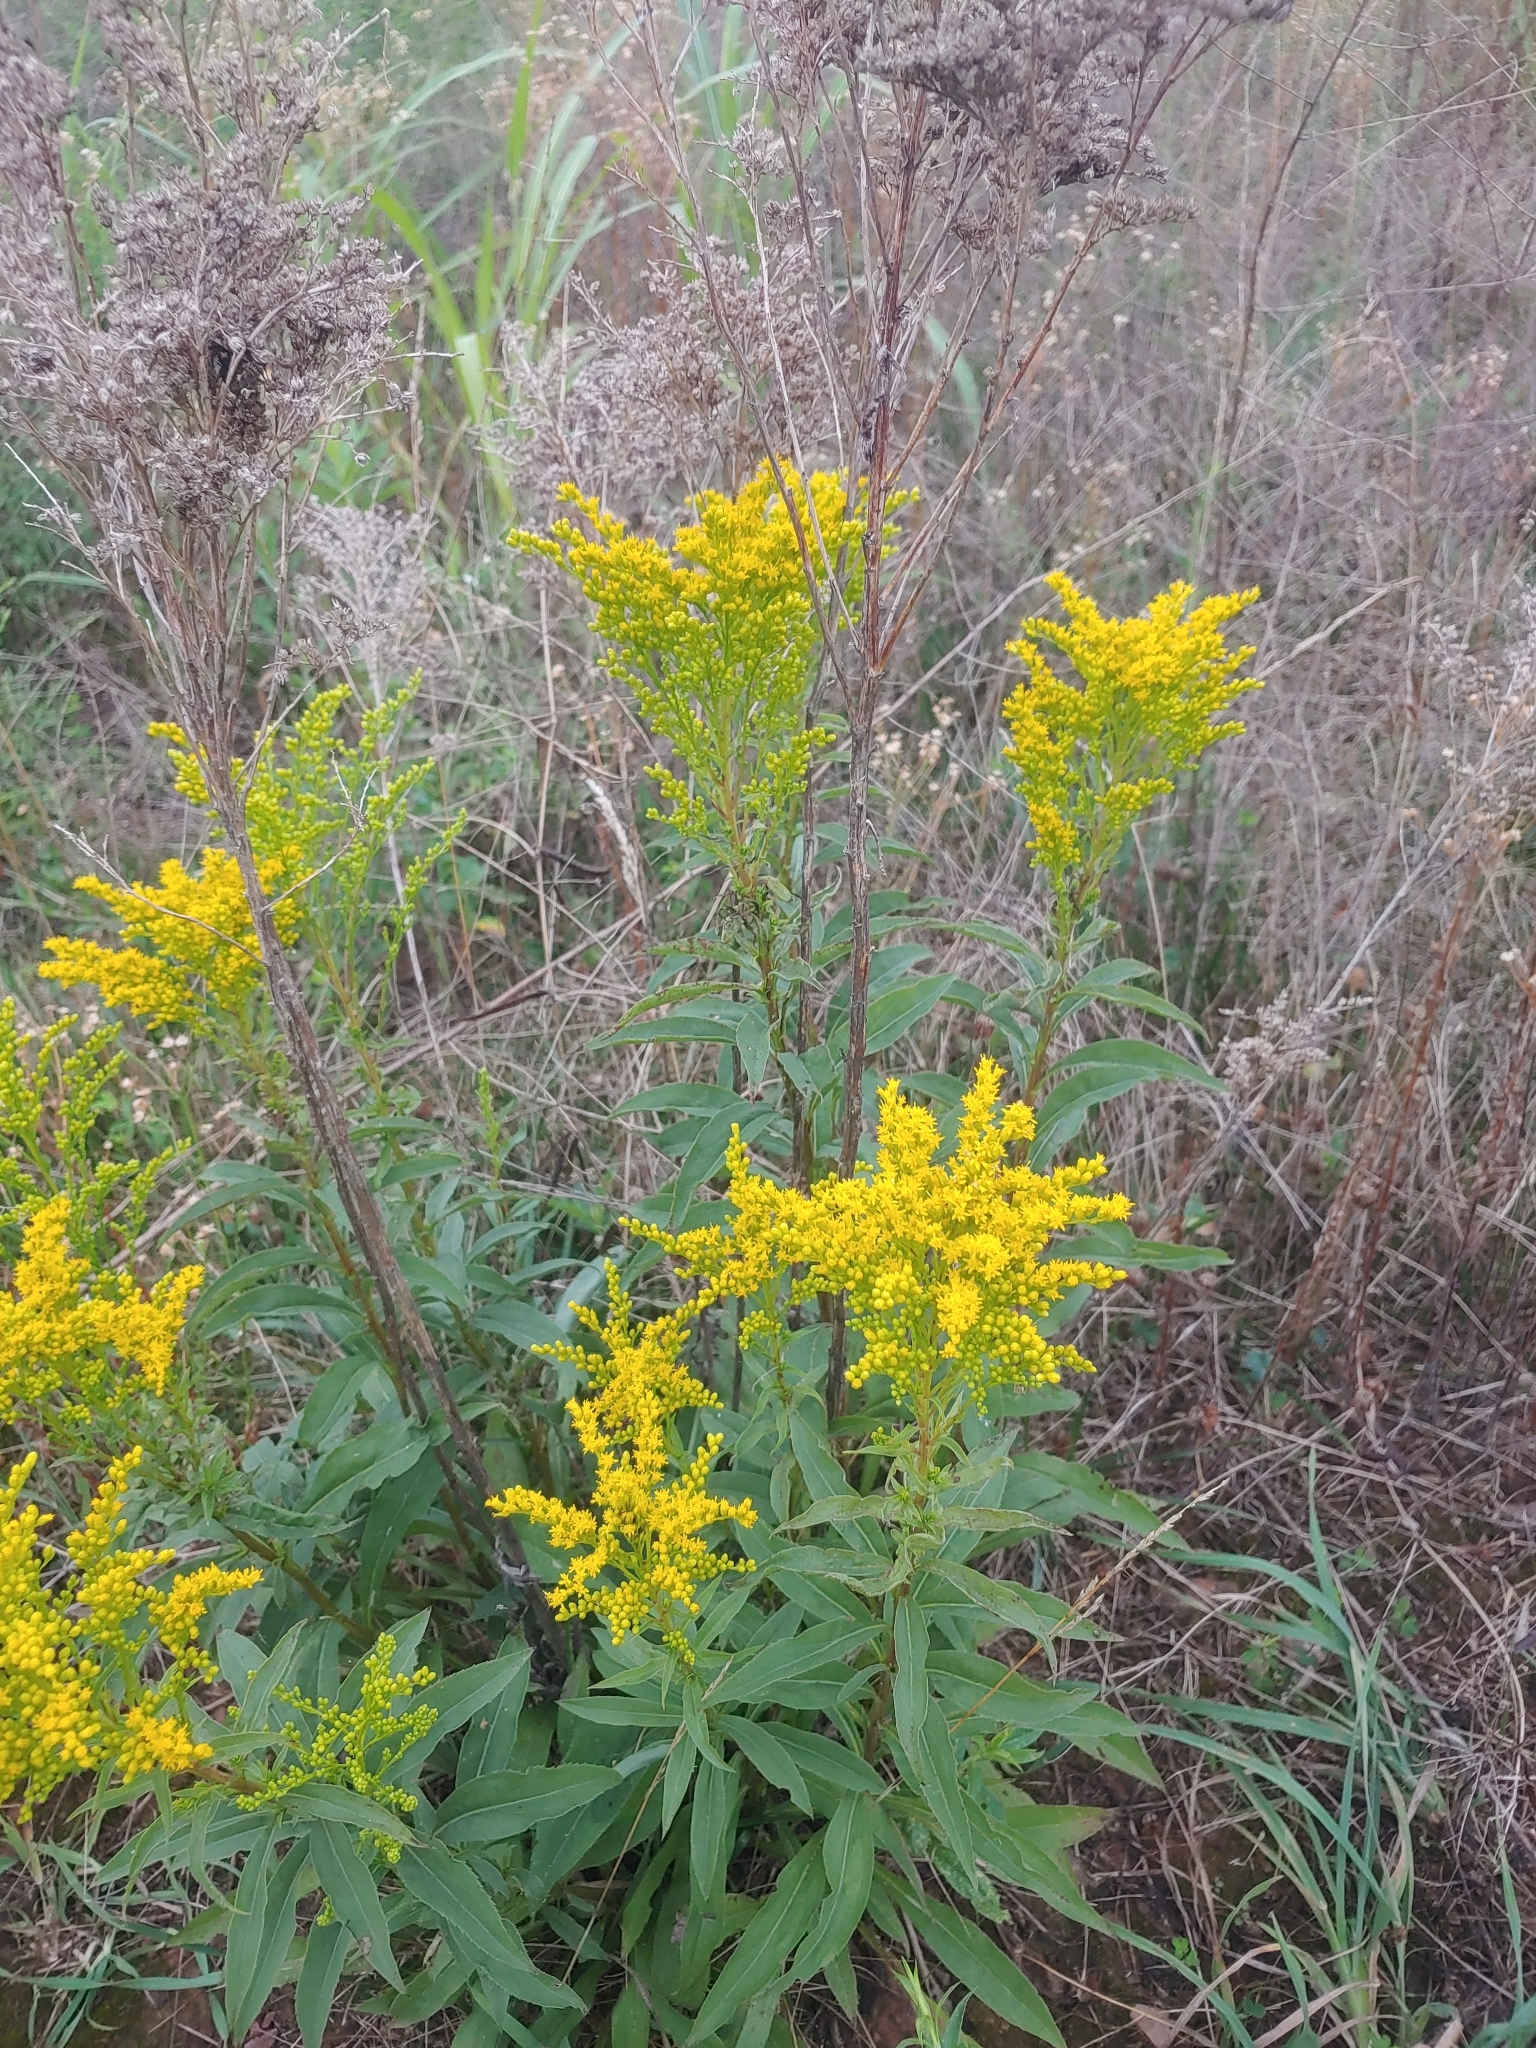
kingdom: Plantae
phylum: Tracheophyta
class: Magnoliopsida
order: Asterales
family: Asteraceae
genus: Solidago
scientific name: Solidago juncea
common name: Early goldenrod
